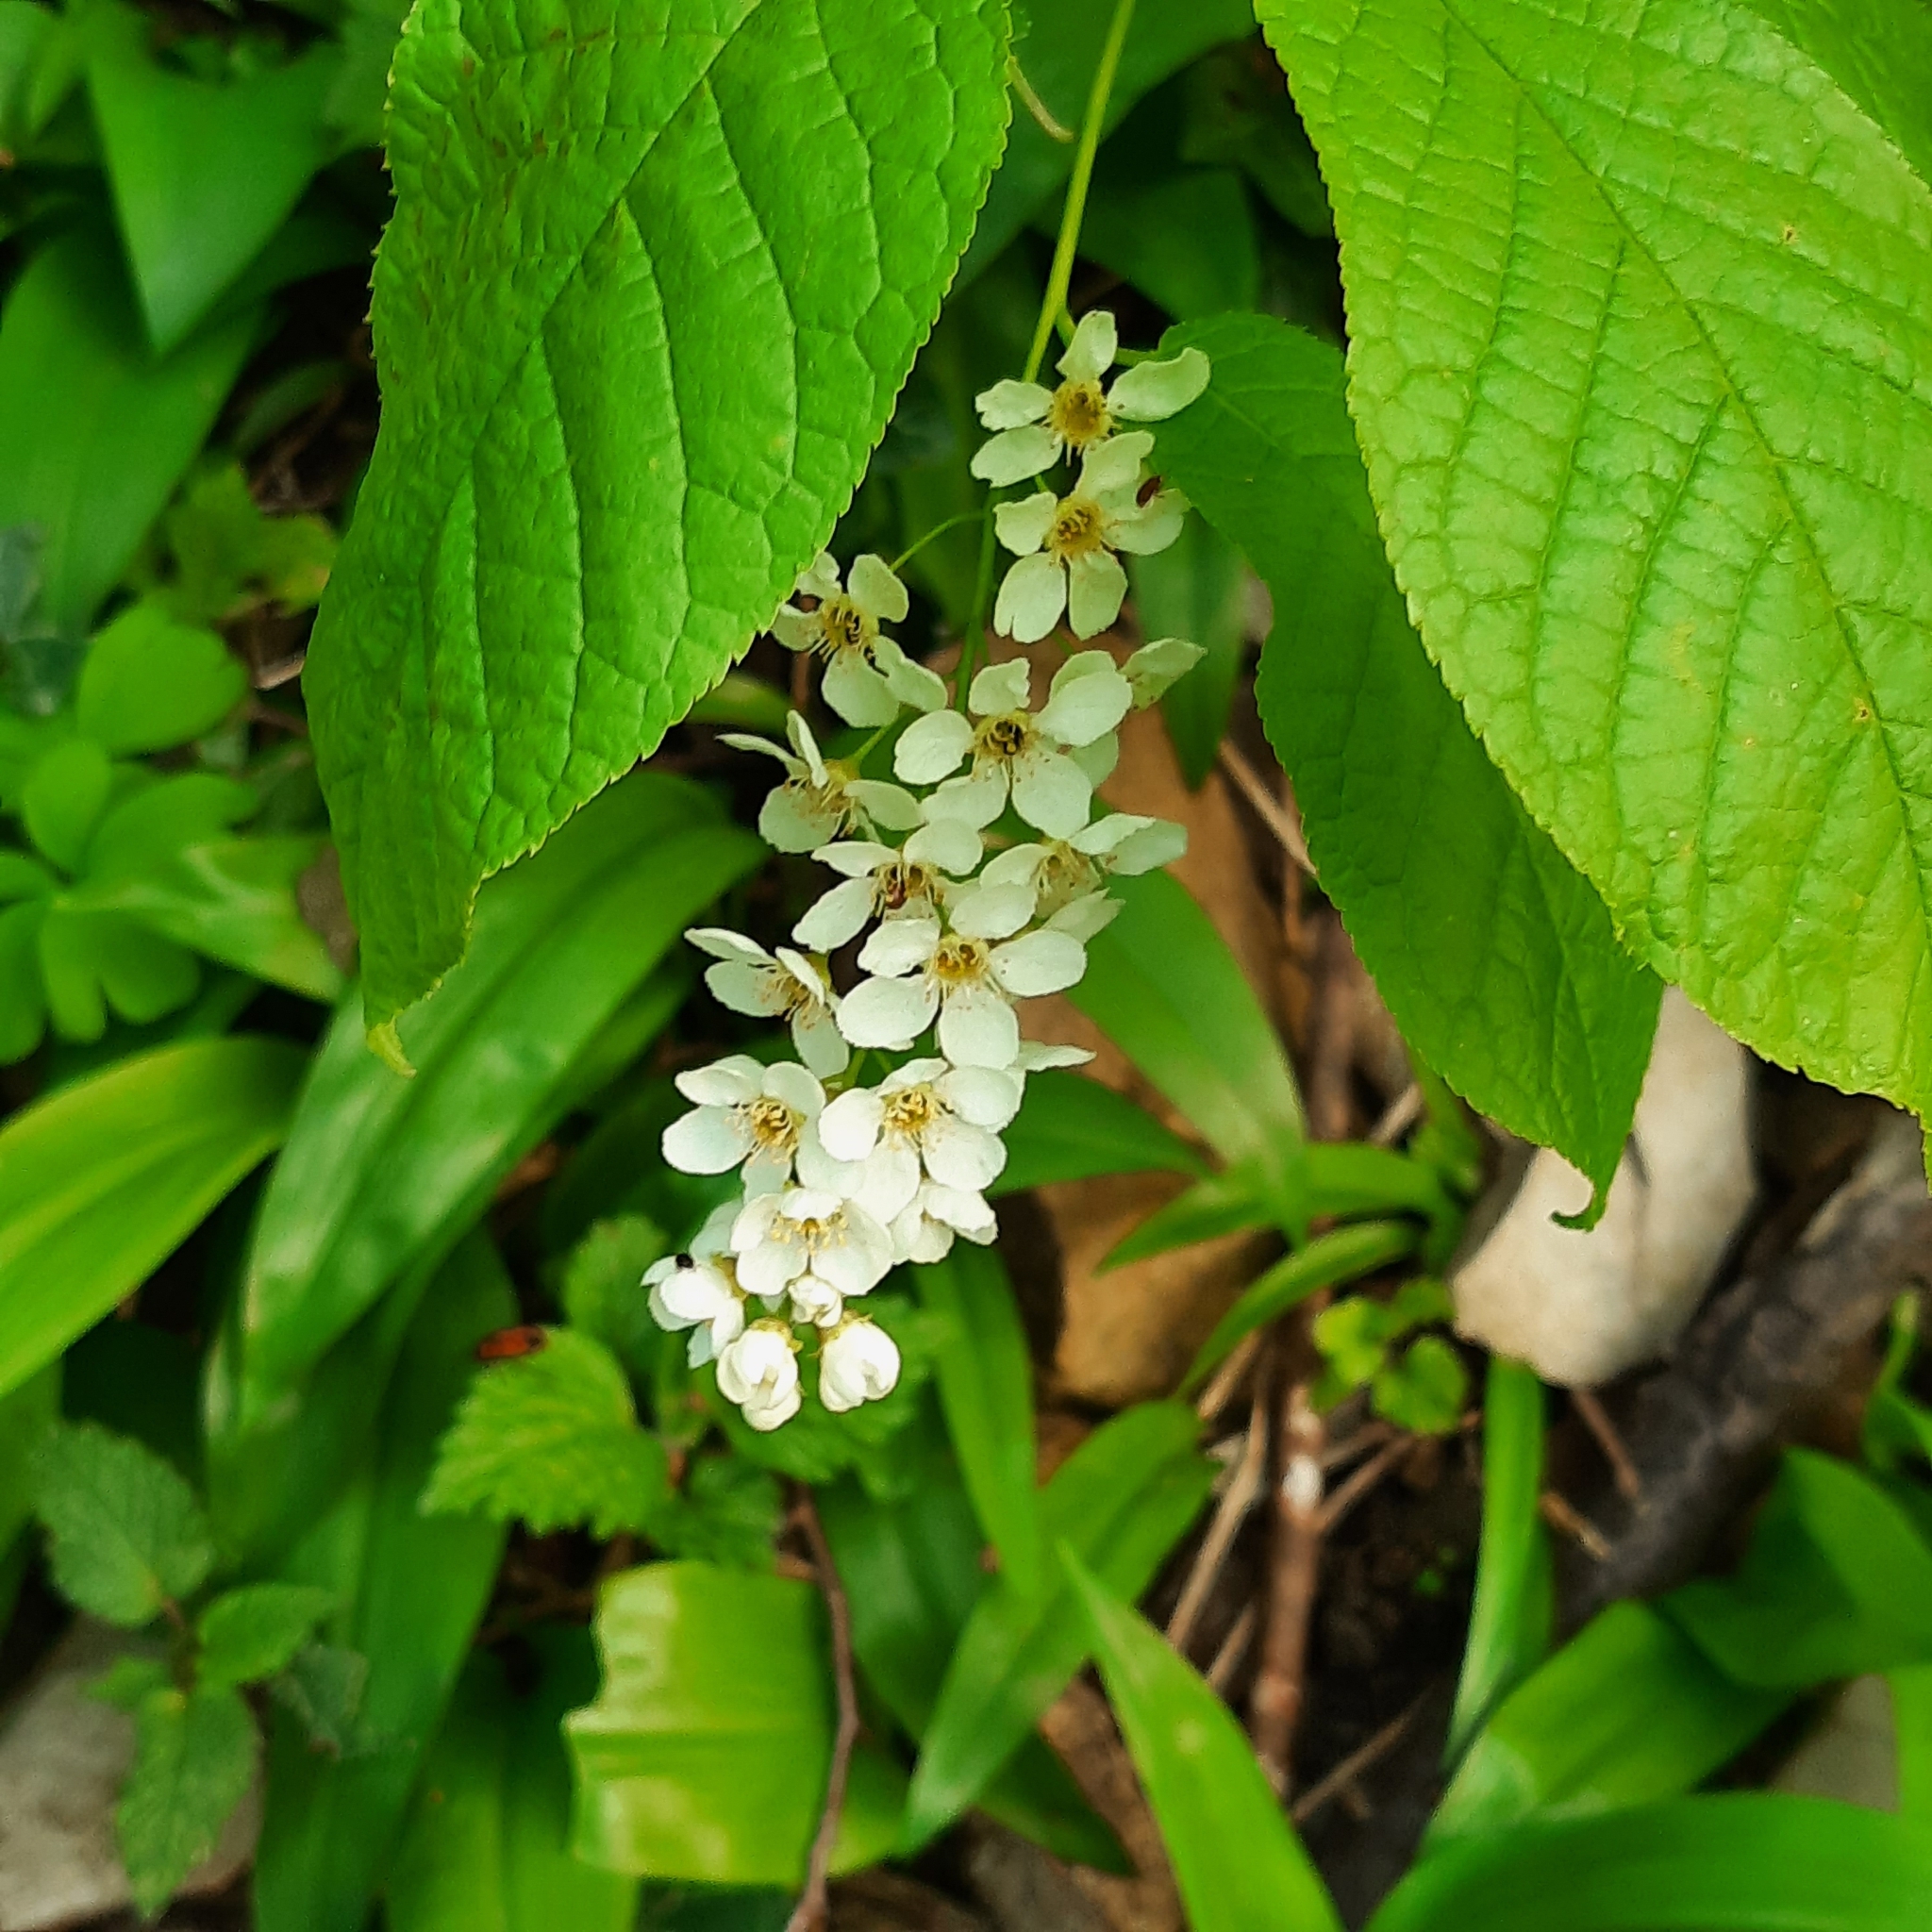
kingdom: Plantae
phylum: Tracheophyta
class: Magnoliopsida
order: Rosales
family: Rosaceae
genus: Prunus
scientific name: Prunus padus
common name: Bird cherry
